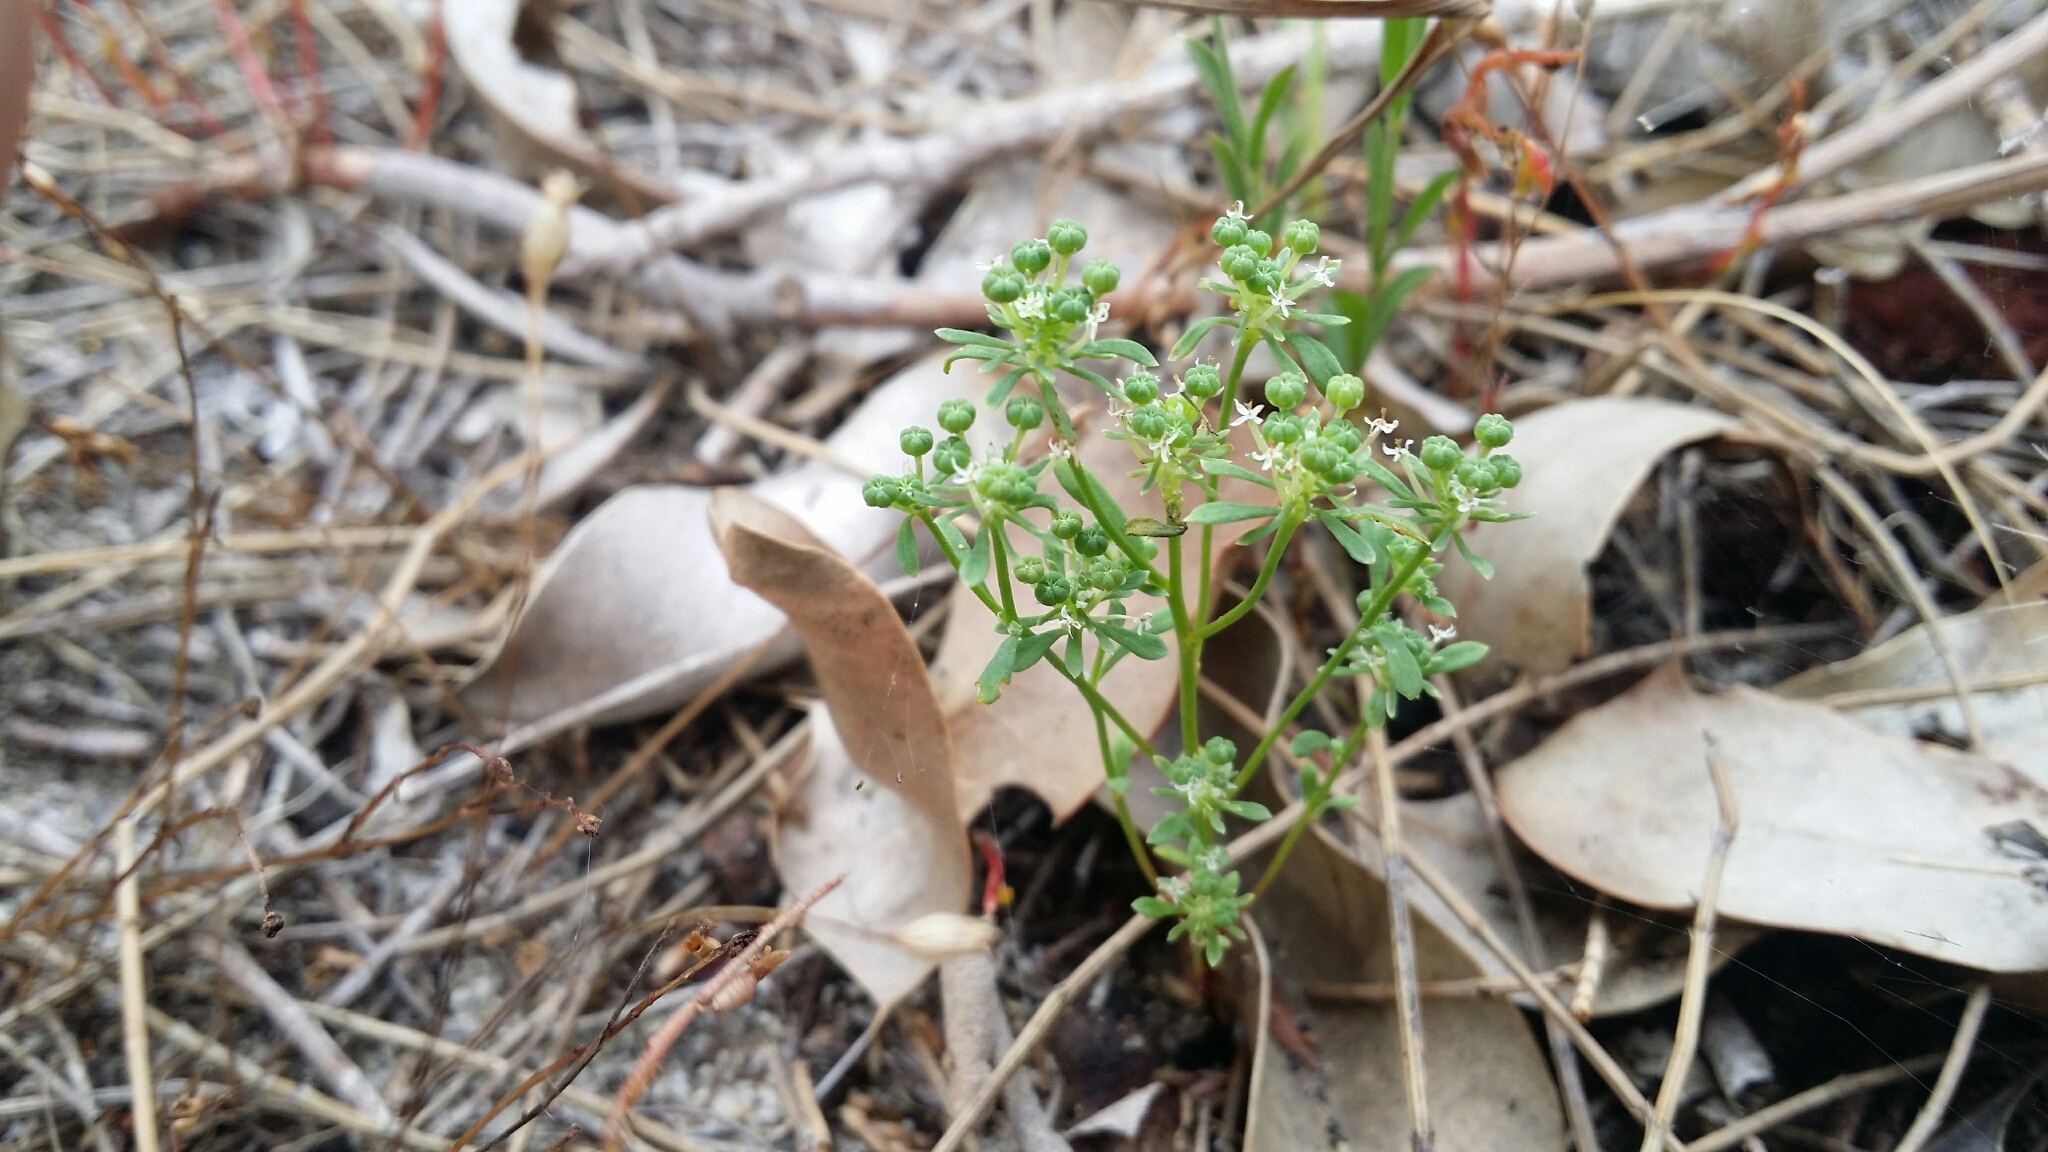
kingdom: Plantae
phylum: Tracheophyta
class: Magnoliopsida
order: Malpighiales
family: Phyllanthaceae
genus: Poranthera
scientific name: Poranthera microphylla
